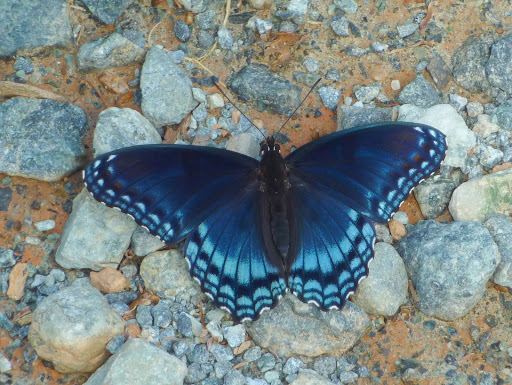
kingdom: Animalia
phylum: Arthropoda
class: Insecta
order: Lepidoptera
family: Nymphalidae
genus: Limenitis
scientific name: Limenitis astyanax
